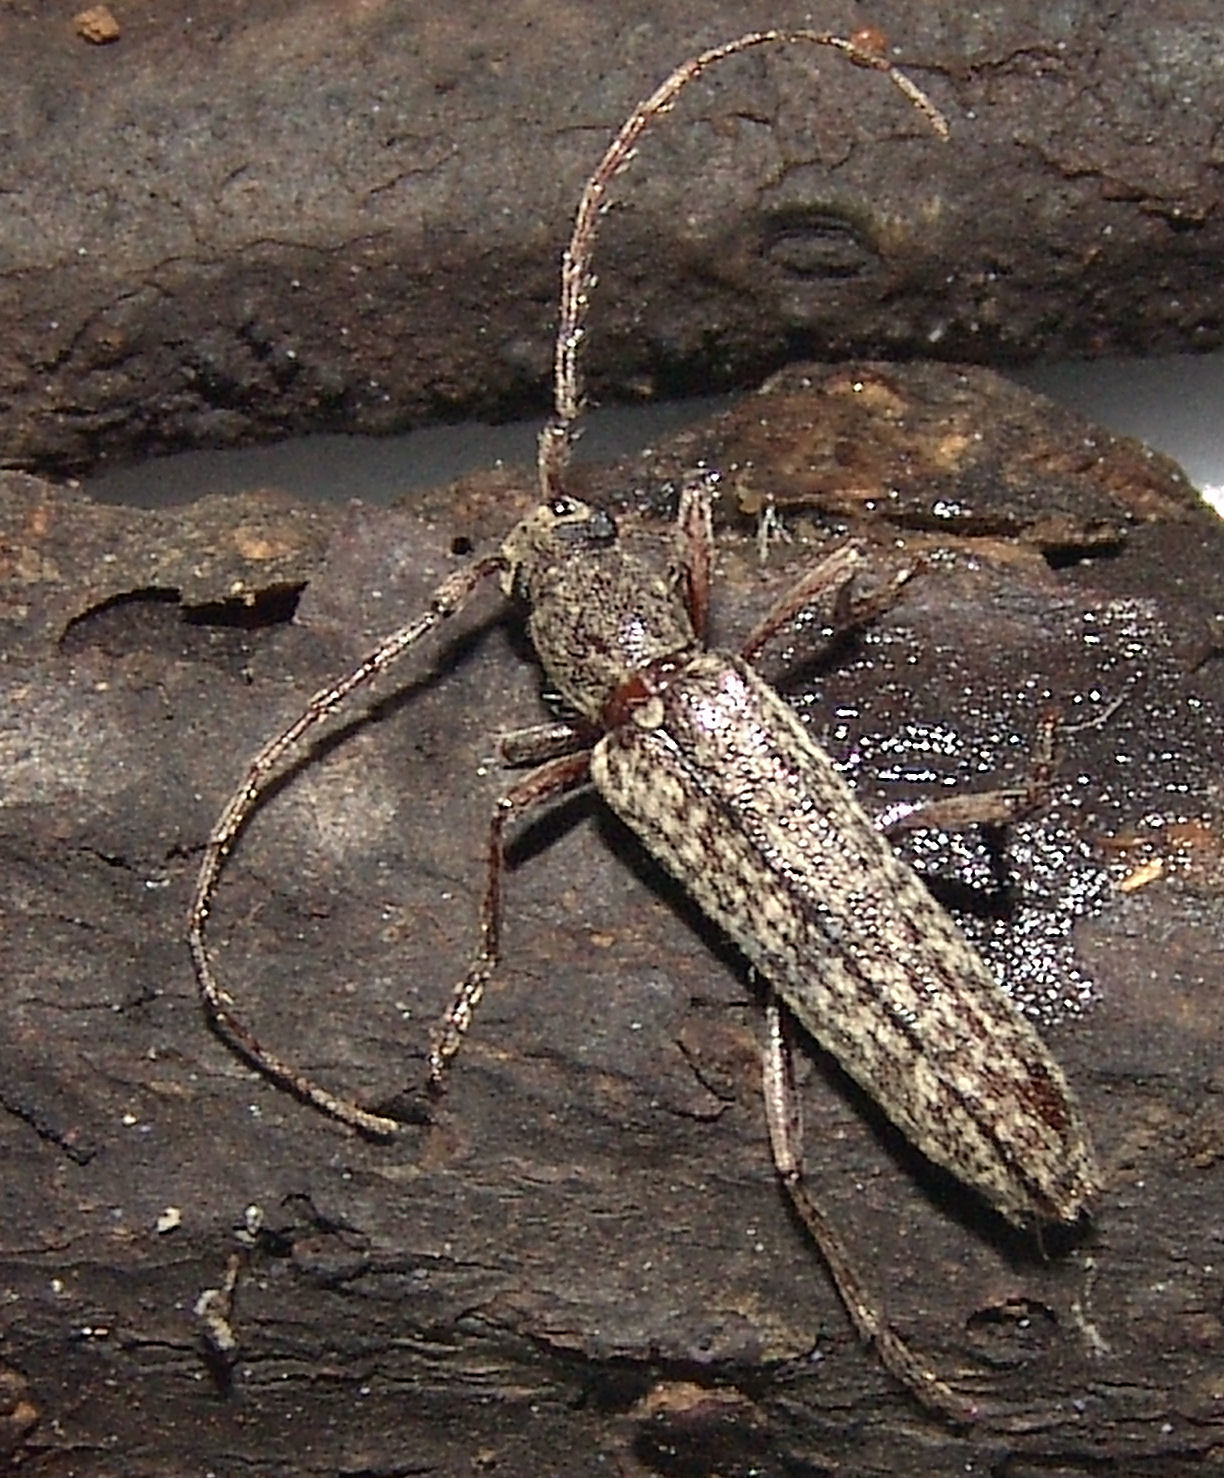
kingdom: Animalia
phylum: Arthropoda
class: Insecta
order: Coleoptera
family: Cerambycidae
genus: Anelaphus
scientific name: Anelaphus villosus
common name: Twig pruner
